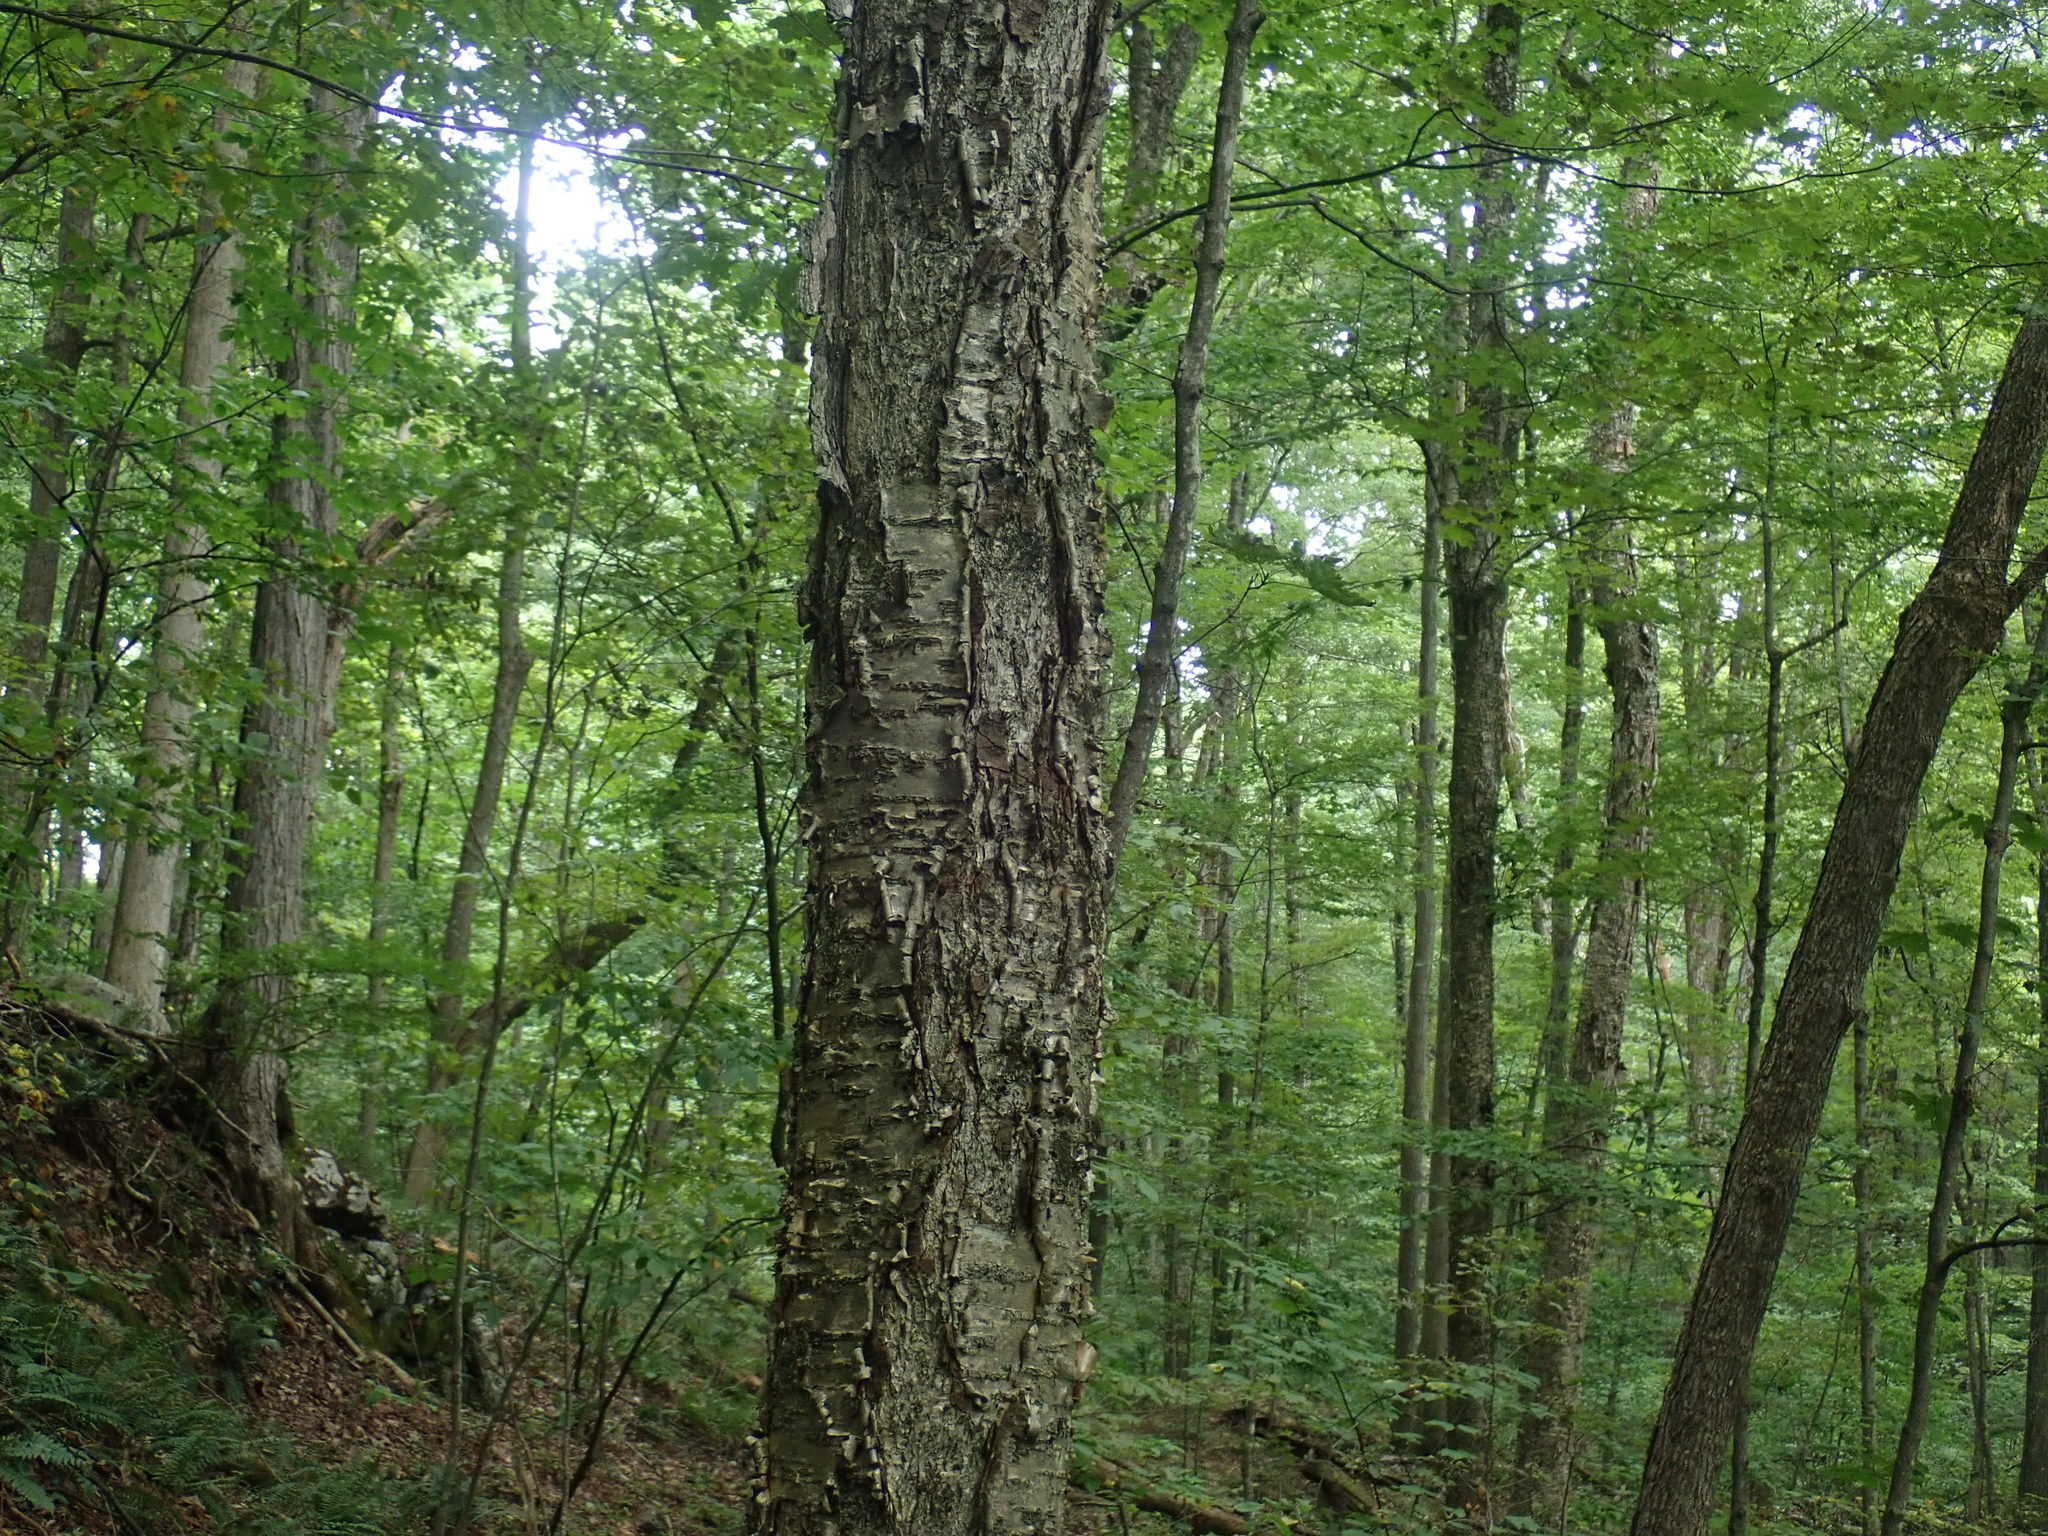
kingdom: Plantae
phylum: Tracheophyta
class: Magnoliopsida
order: Fagales
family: Betulaceae
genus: Betula
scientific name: Betula alleghaniensis
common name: Yellow birch
